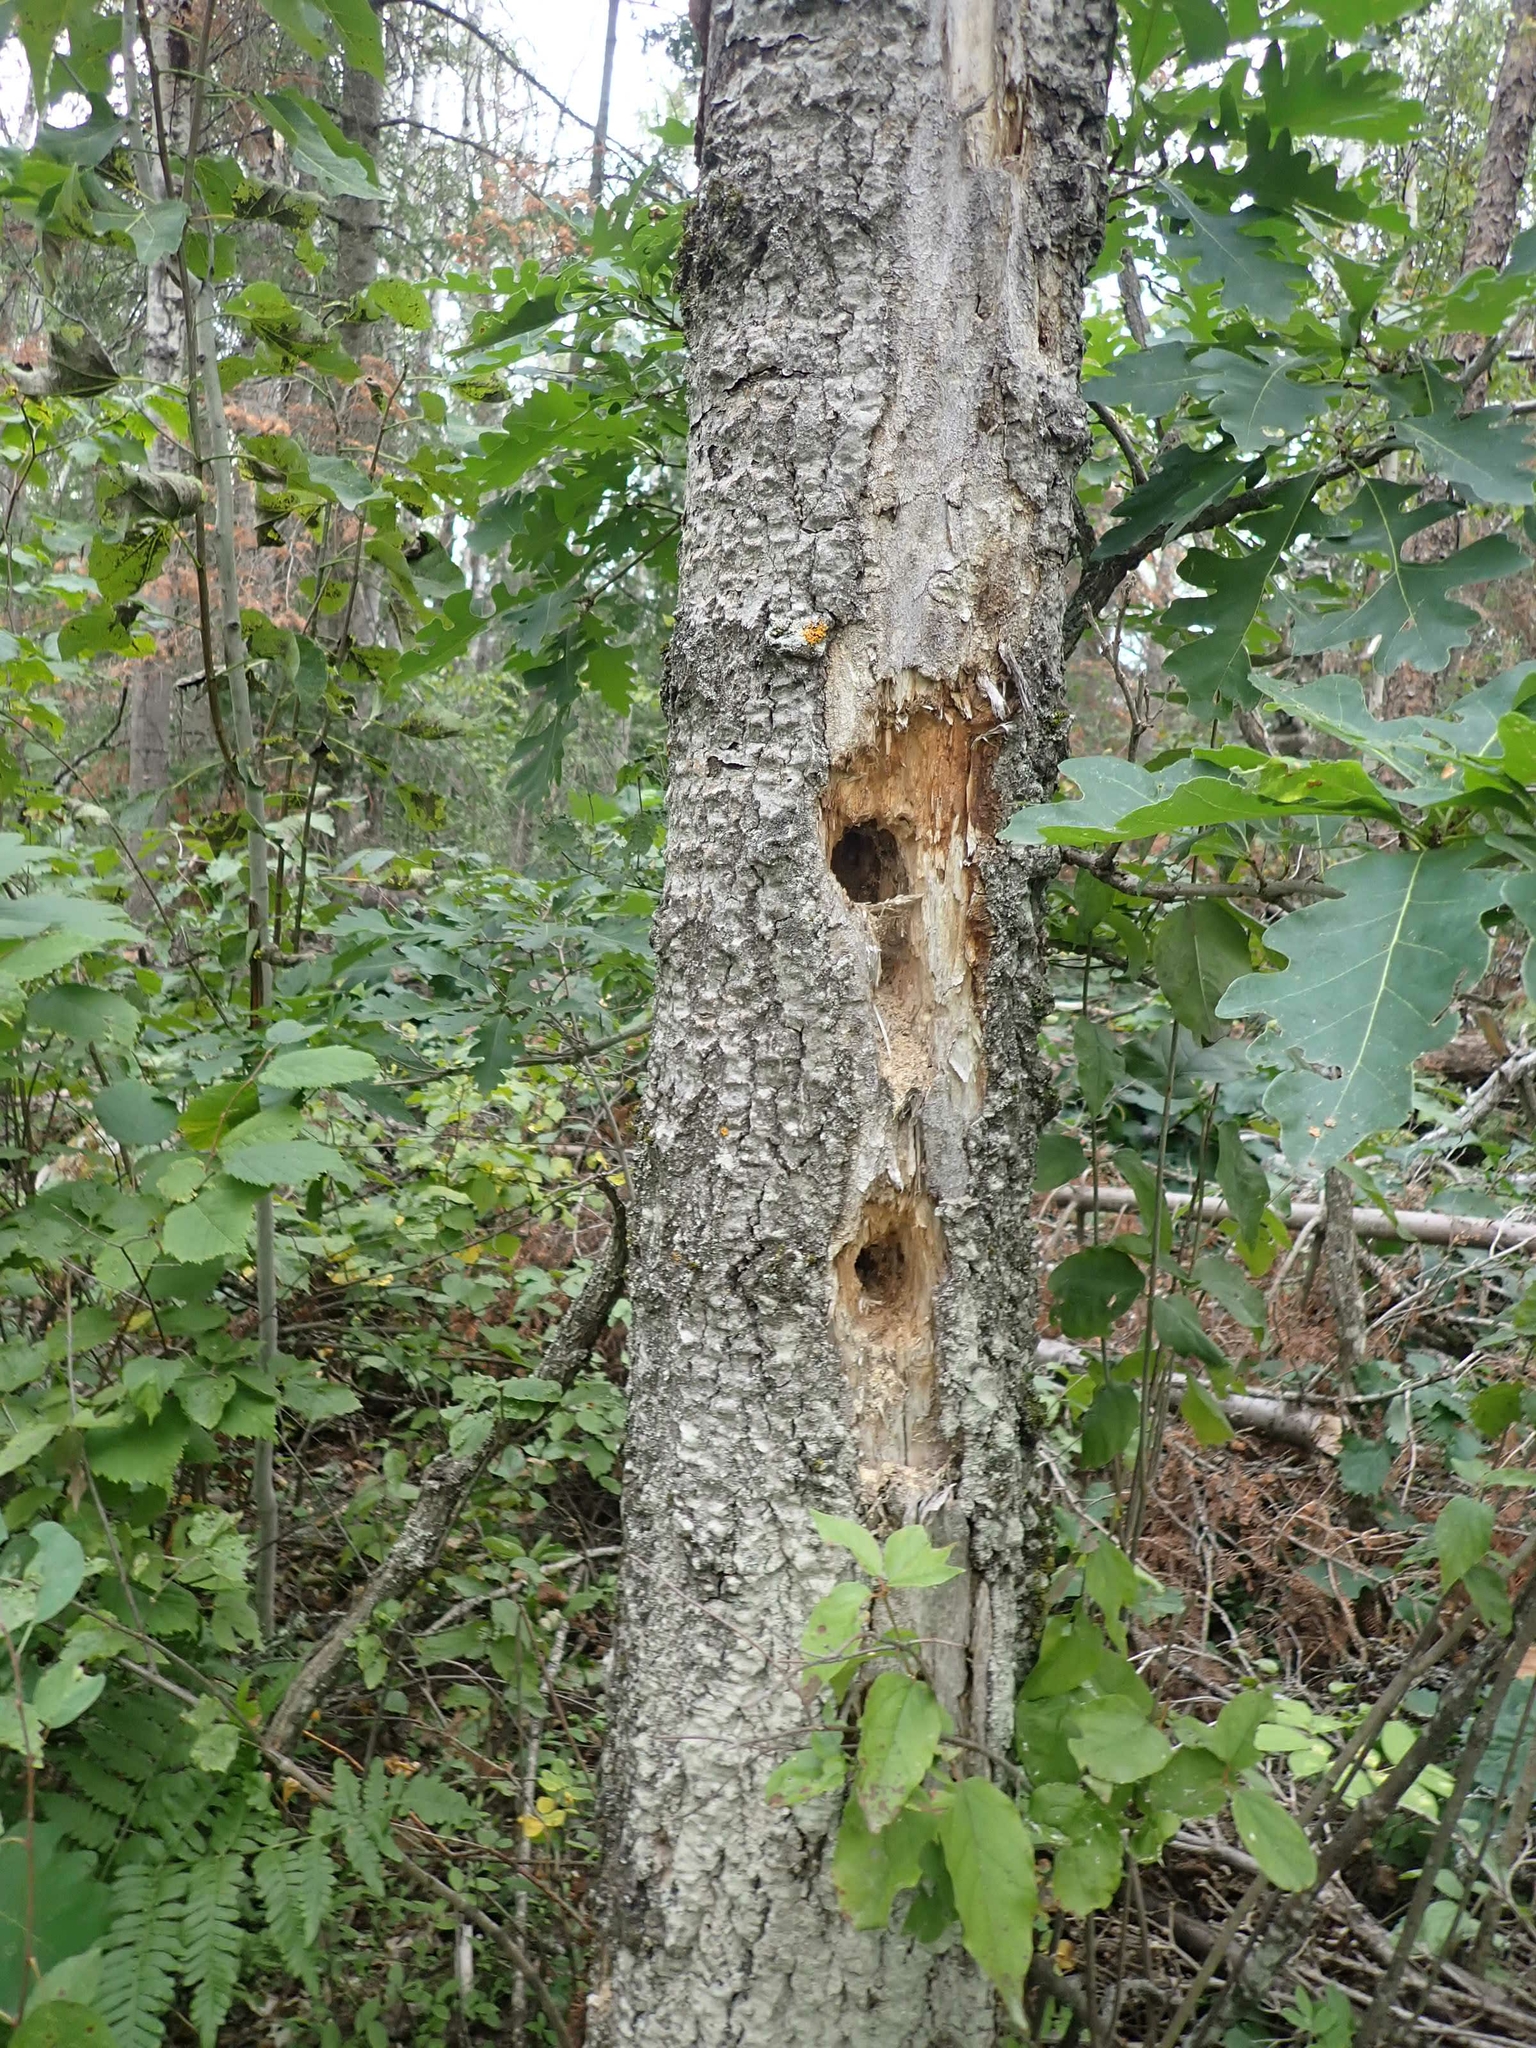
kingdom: Animalia
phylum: Chordata
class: Aves
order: Piciformes
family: Picidae
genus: Dryocopus
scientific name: Dryocopus pileatus
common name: Pileated woodpecker
